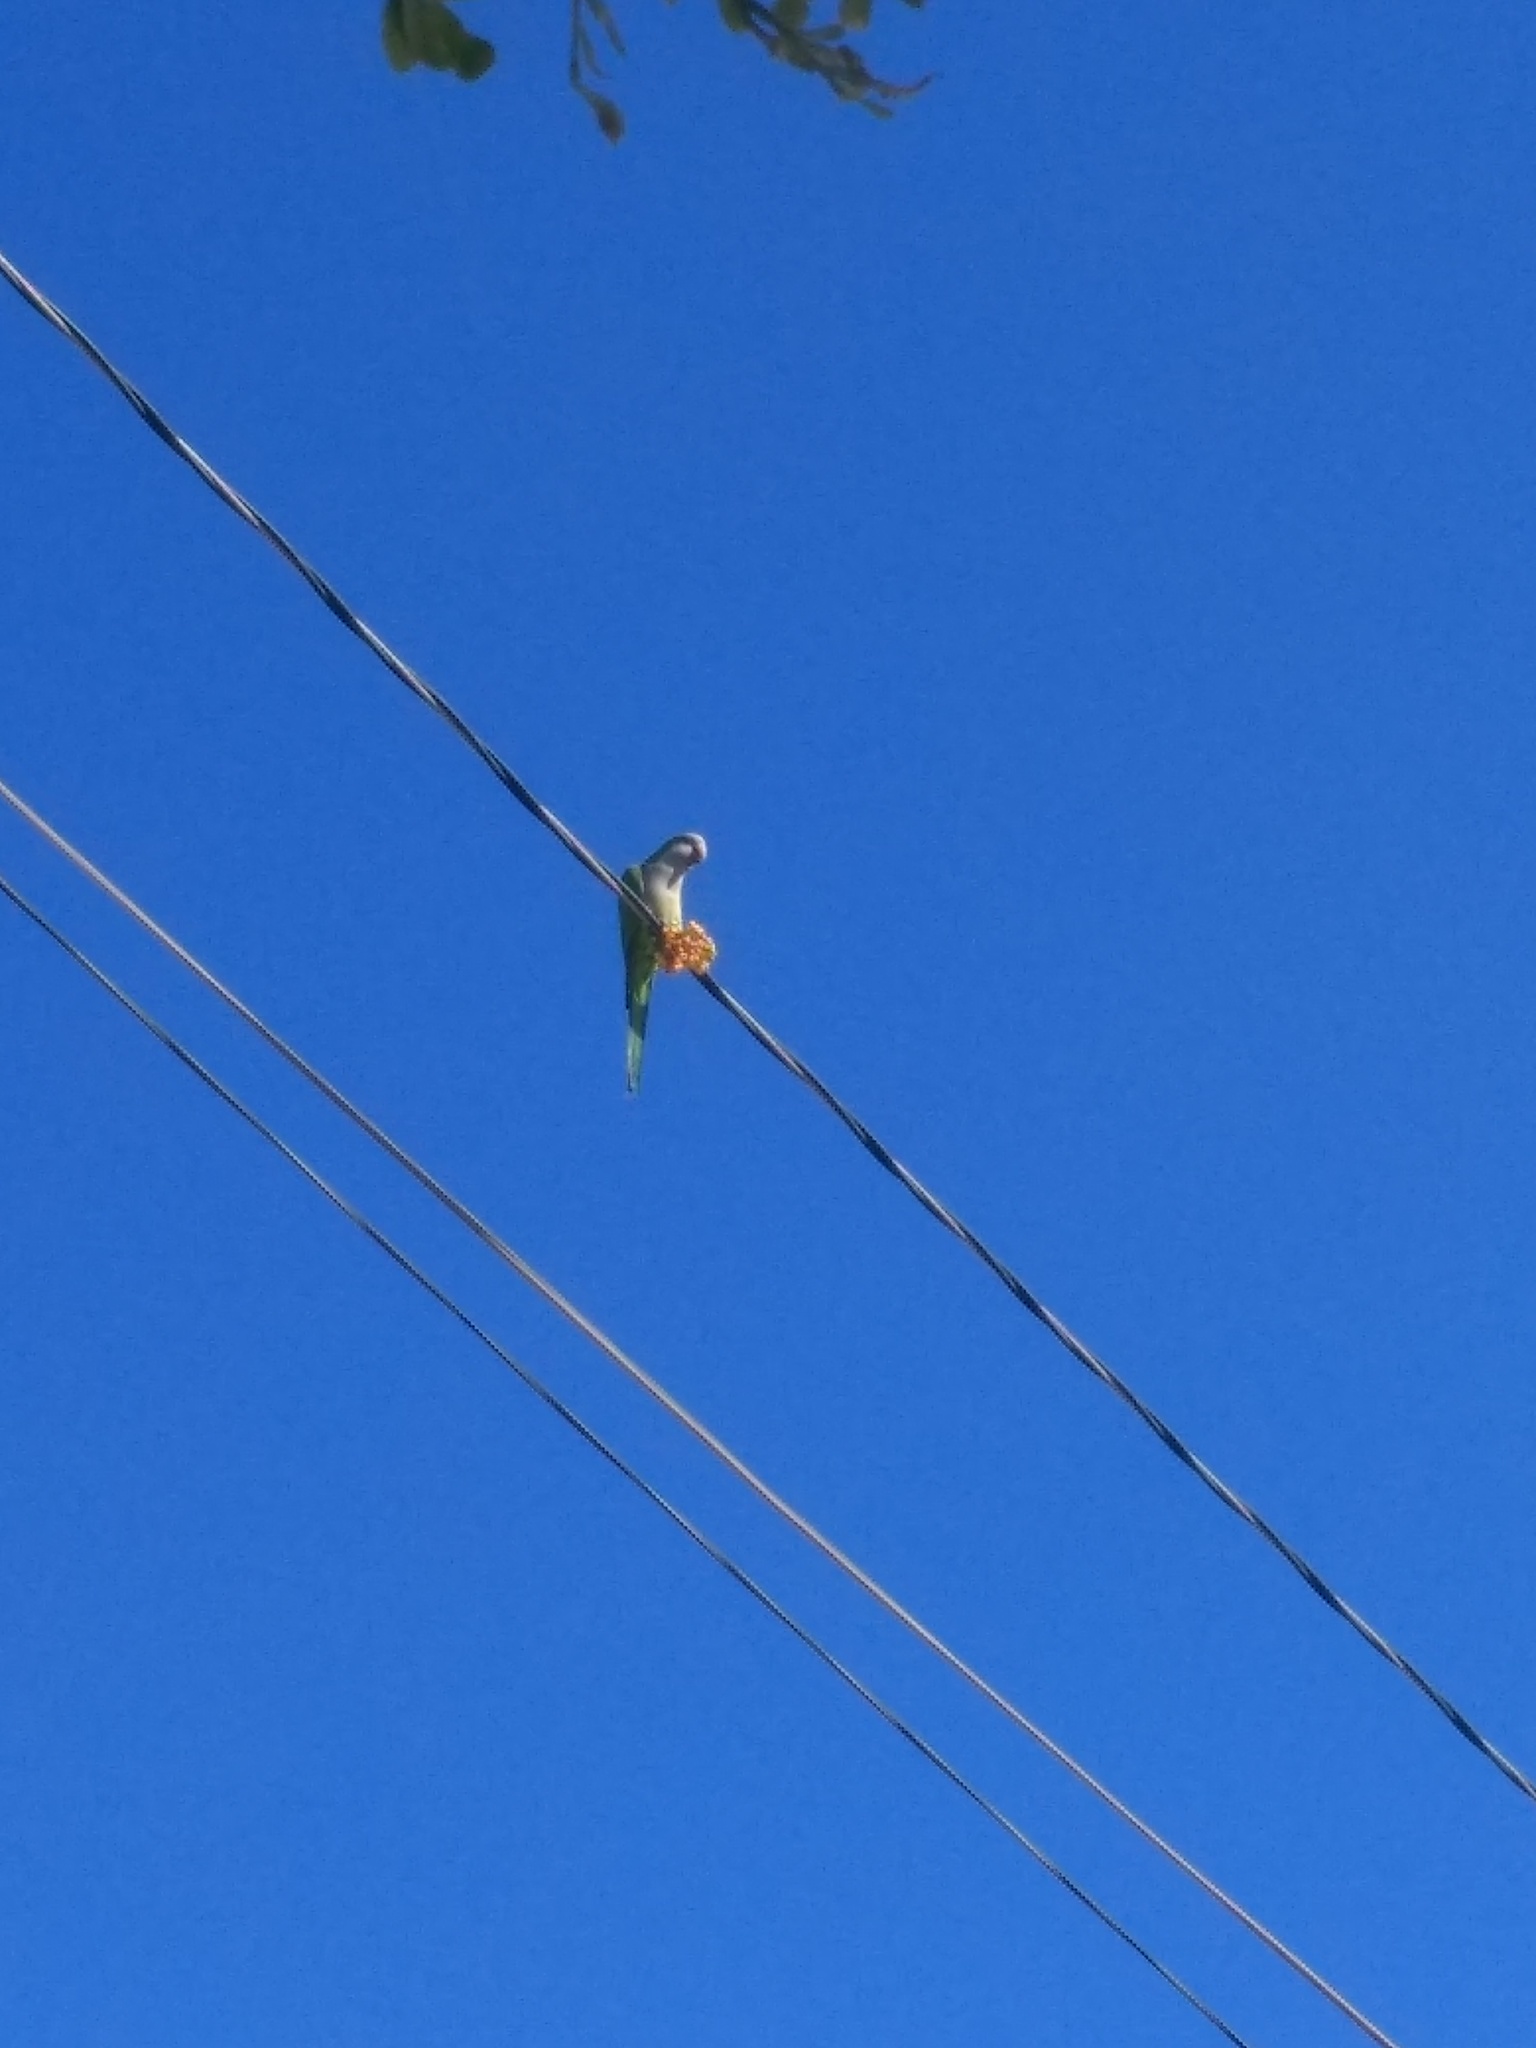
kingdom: Animalia
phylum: Chordata
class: Aves
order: Psittaciformes
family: Psittacidae
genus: Myiopsitta
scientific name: Myiopsitta monachus
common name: Monk parakeet
